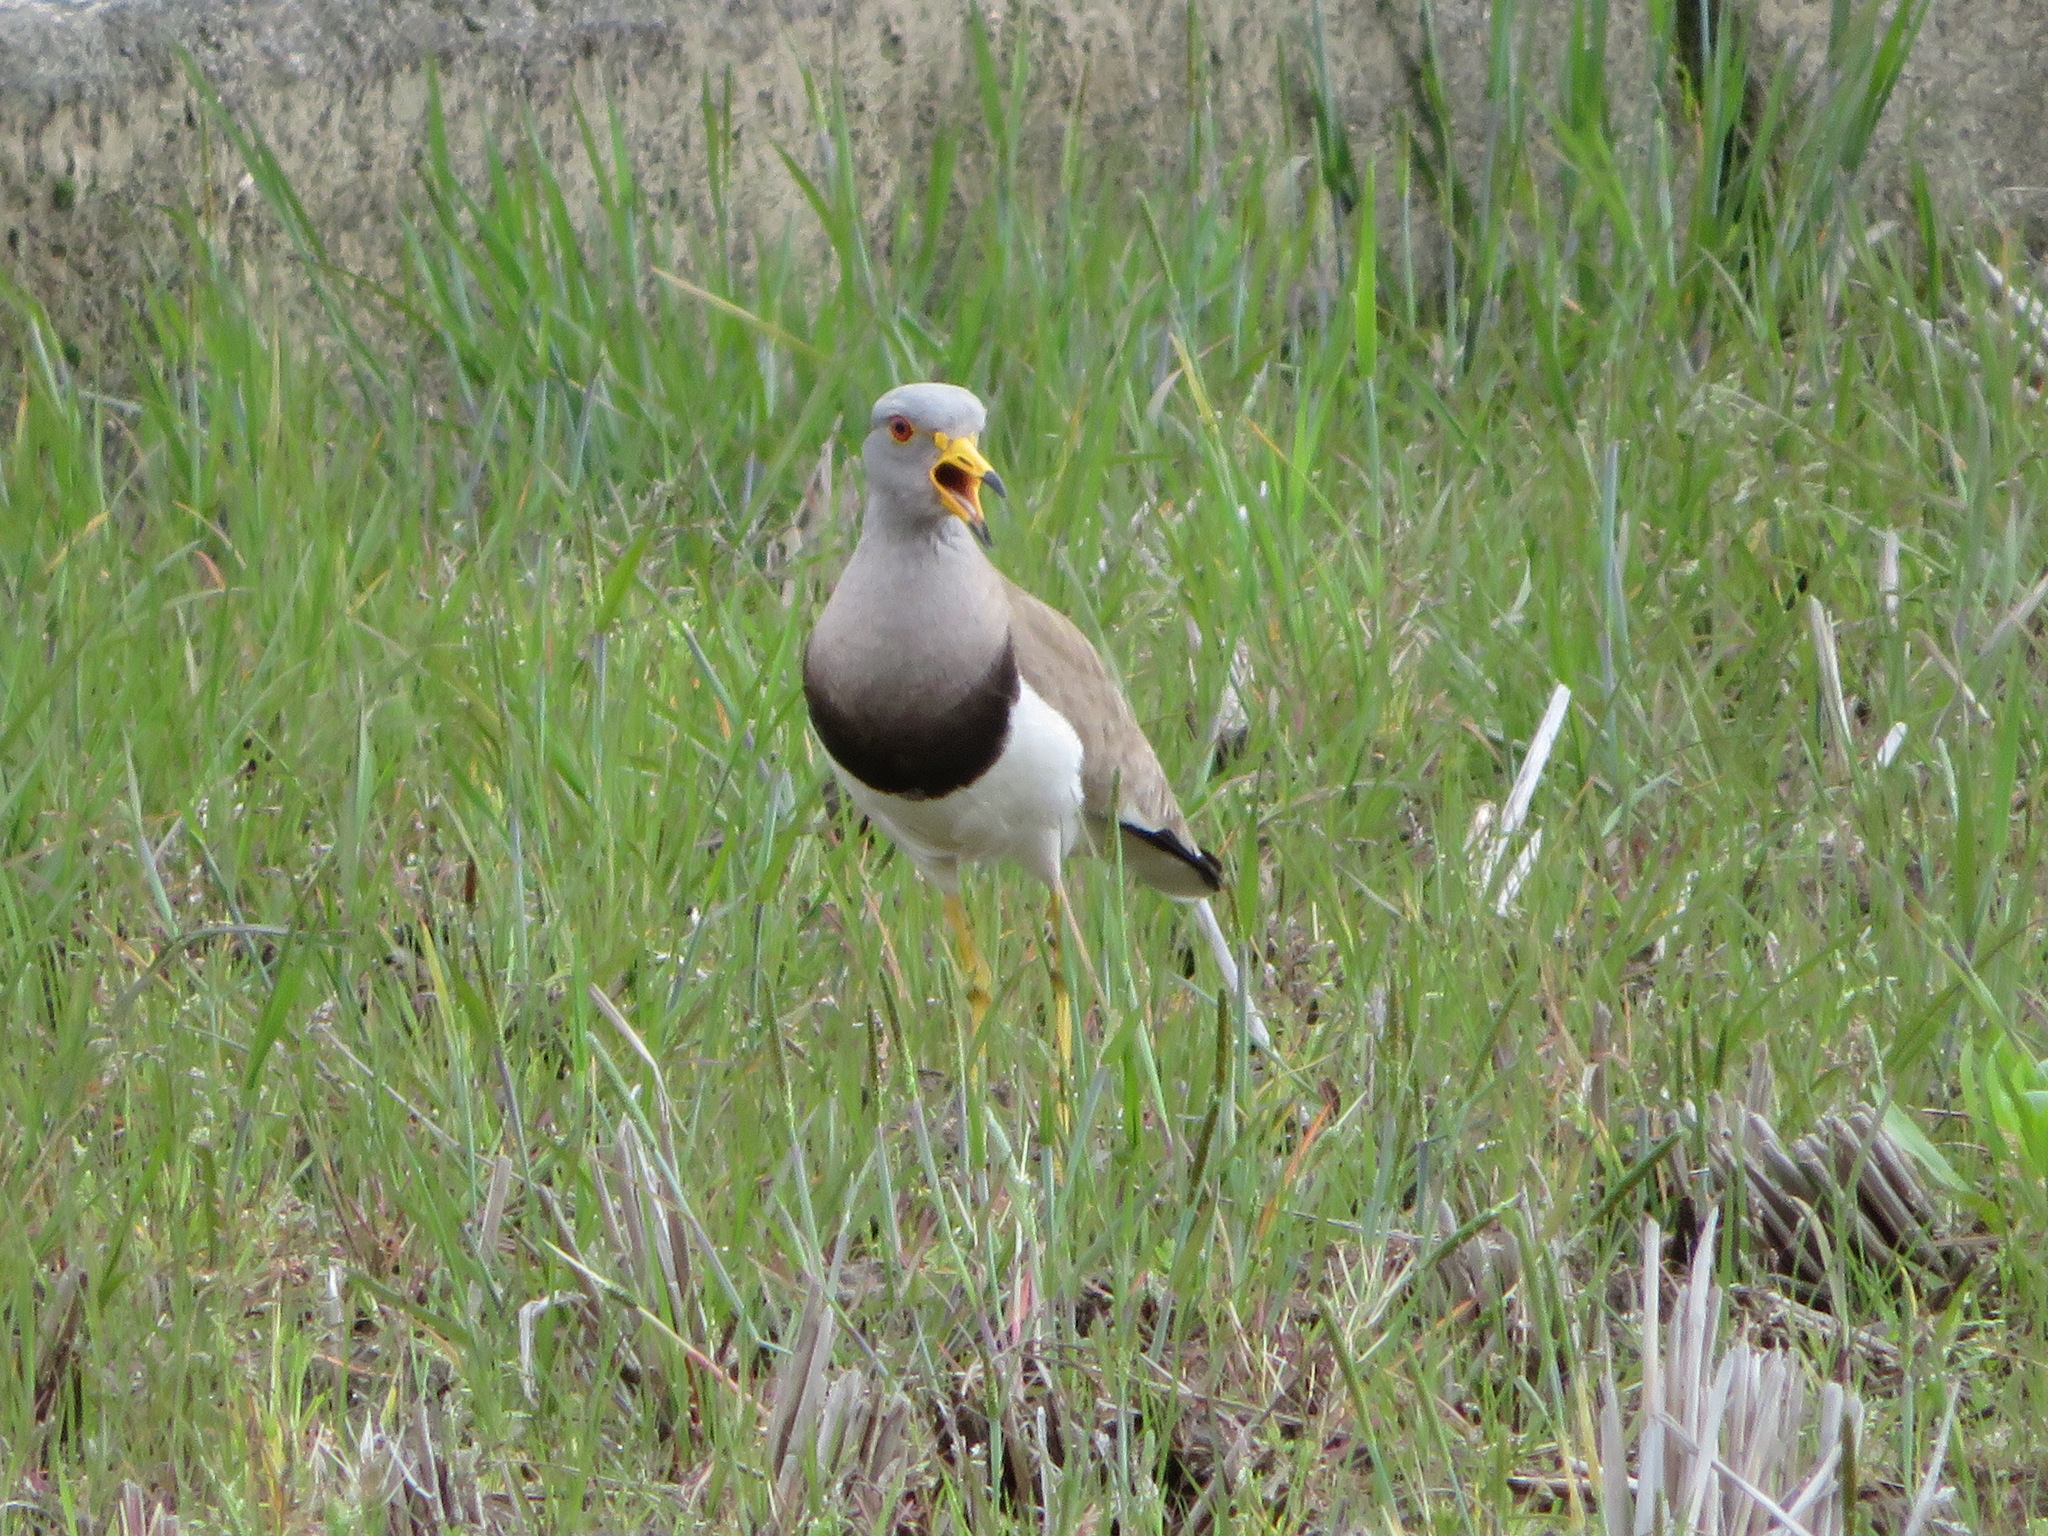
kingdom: Animalia
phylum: Chordata
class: Aves
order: Charadriiformes
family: Charadriidae
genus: Vanellus
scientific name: Vanellus cinereus
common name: Grey-headed lapwing
